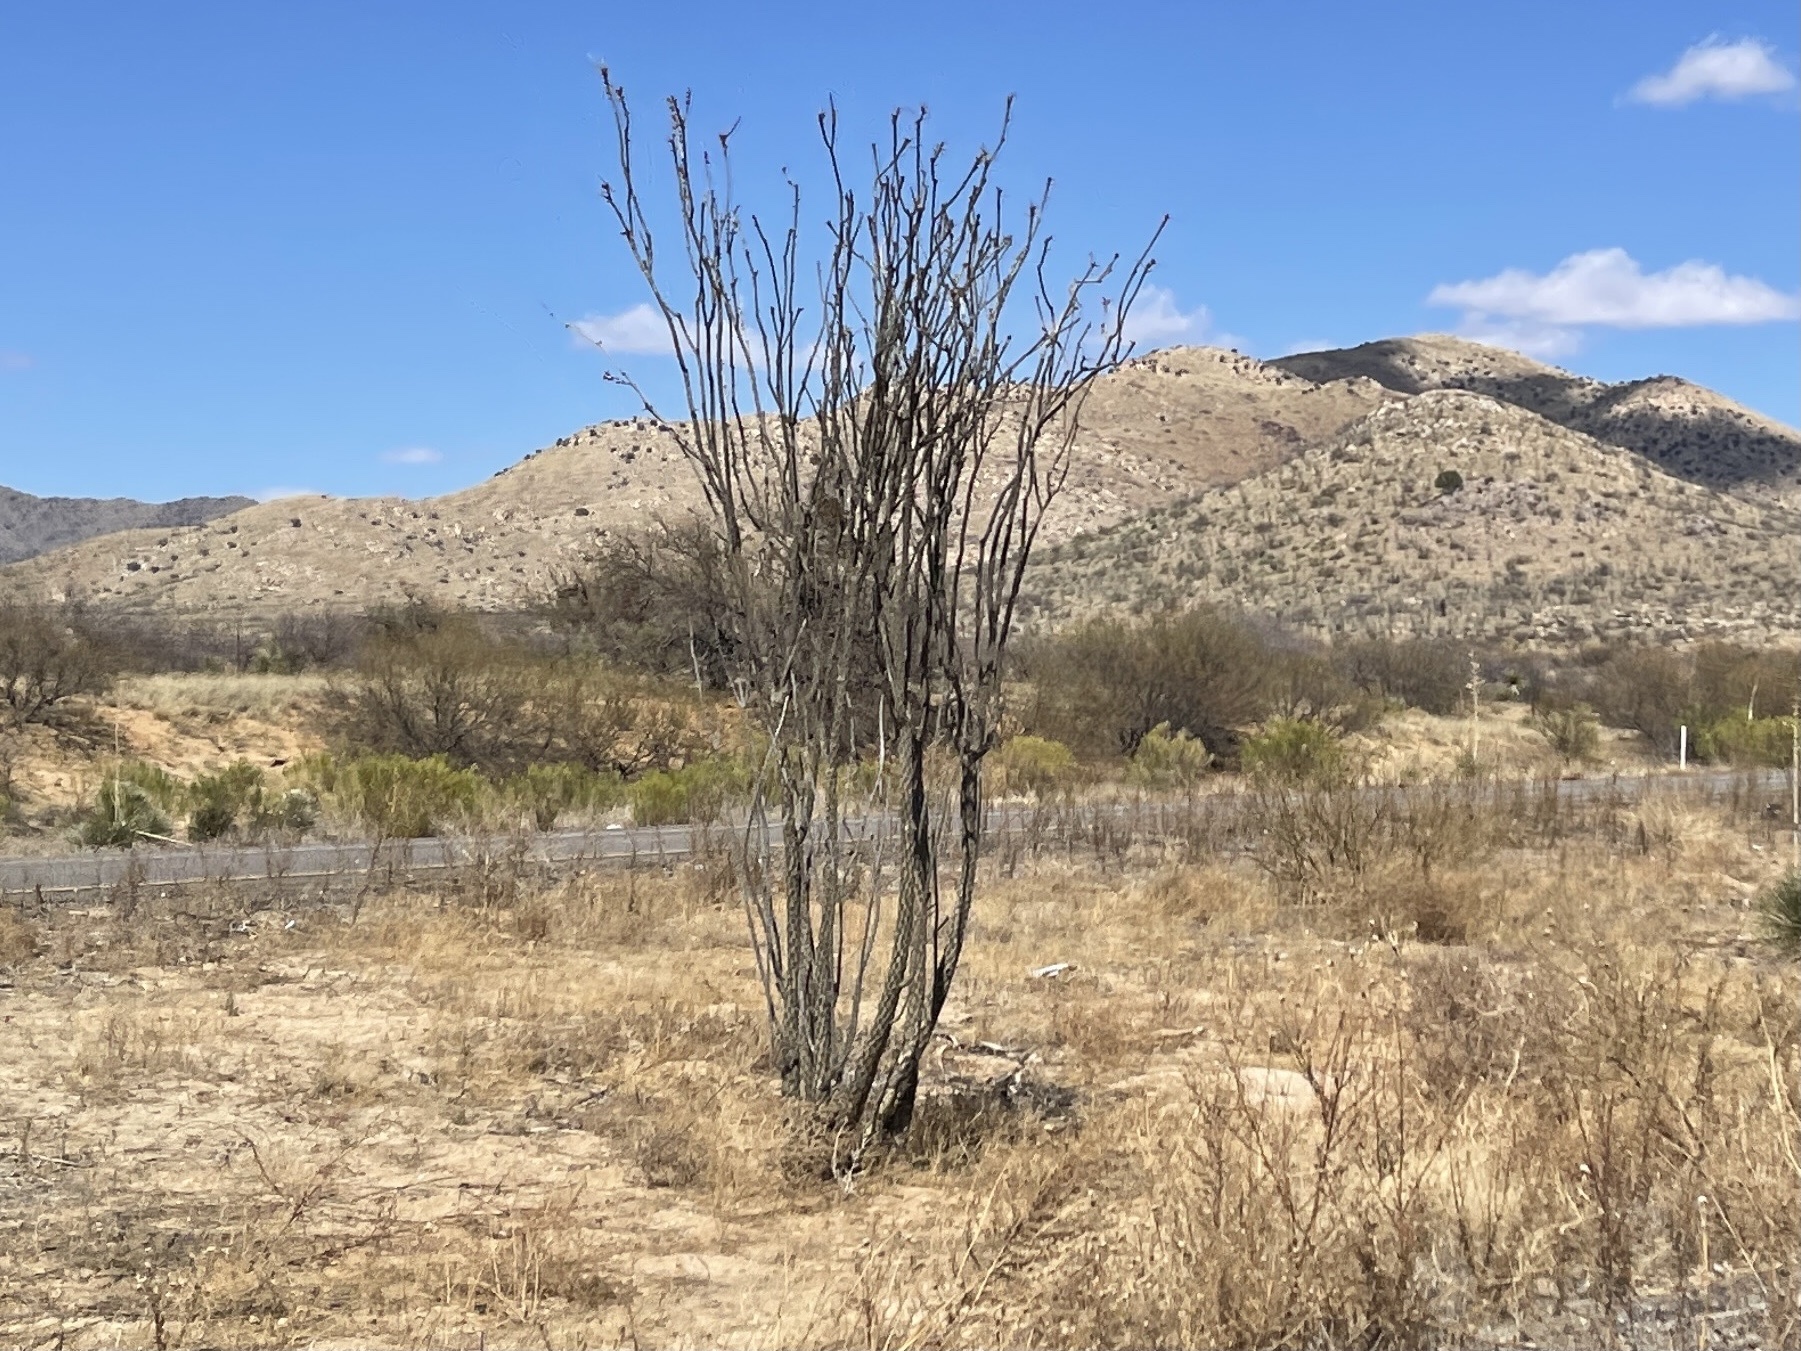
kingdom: Plantae
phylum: Tracheophyta
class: Magnoliopsida
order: Ericales
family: Fouquieriaceae
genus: Fouquieria
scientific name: Fouquieria splendens
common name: Vine-cactus
